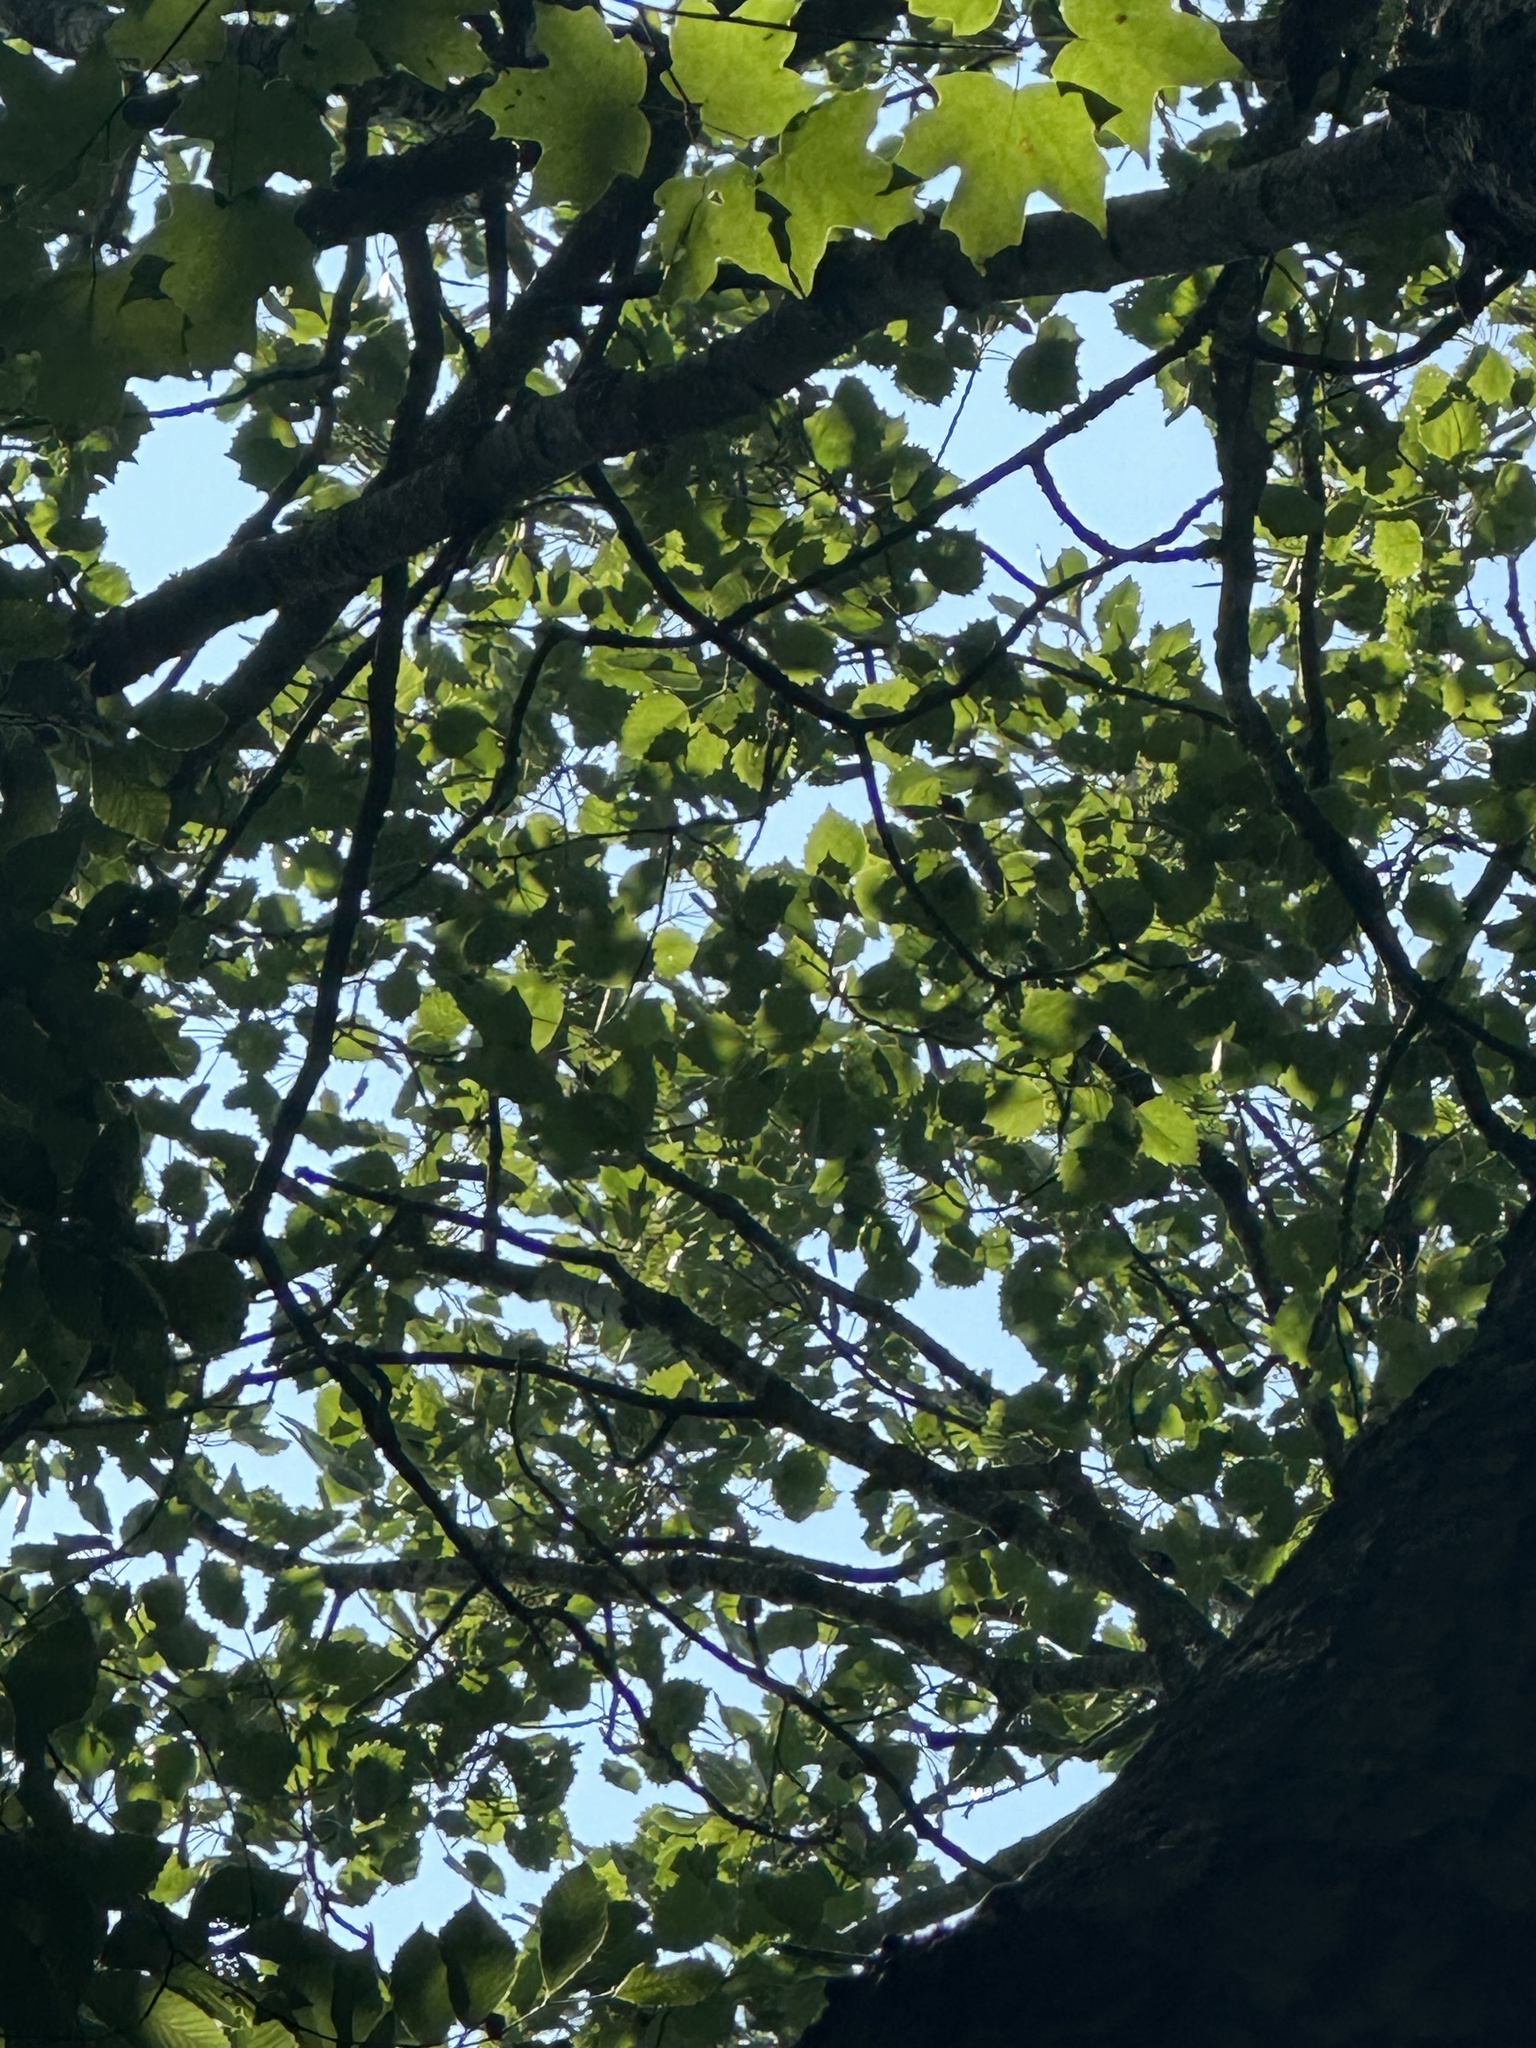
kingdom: Plantae
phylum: Tracheophyta
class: Magnoliopsida
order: Malpighiales
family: Salicaceae
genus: Populus
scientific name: Populus grandidentata
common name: Bigtooth aspen
